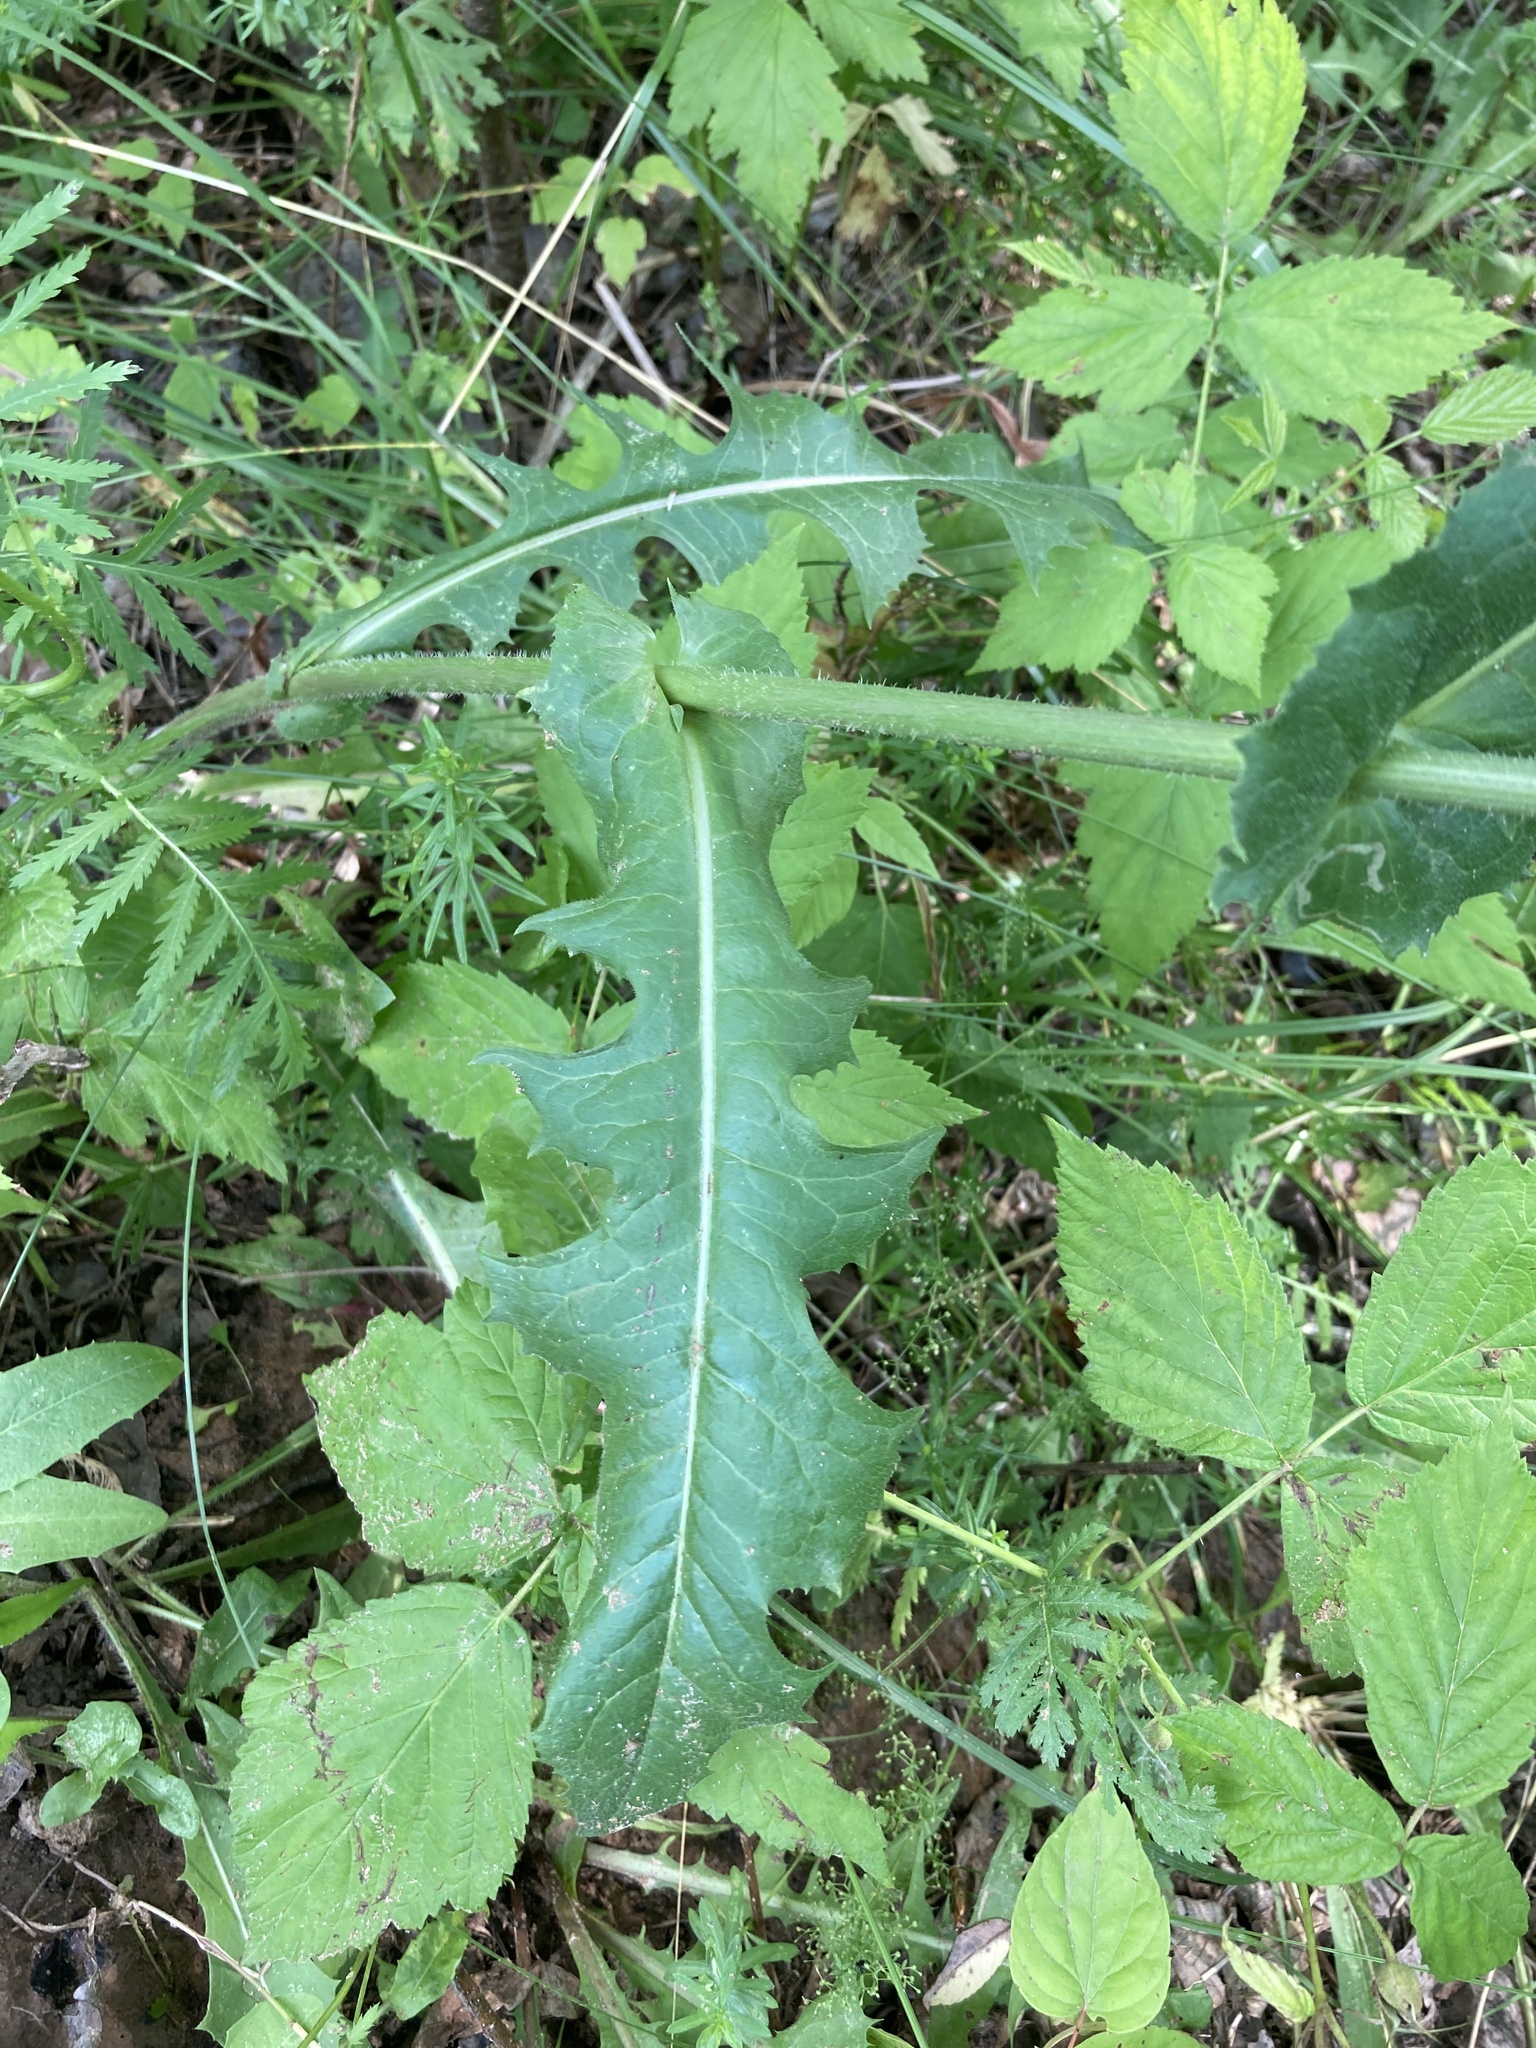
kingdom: Plantae
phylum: Tracheophyta
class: Magnoliopsida
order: Asterales
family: Asteraceae
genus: Cichorium
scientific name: Cichorium intybus
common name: Chicory
